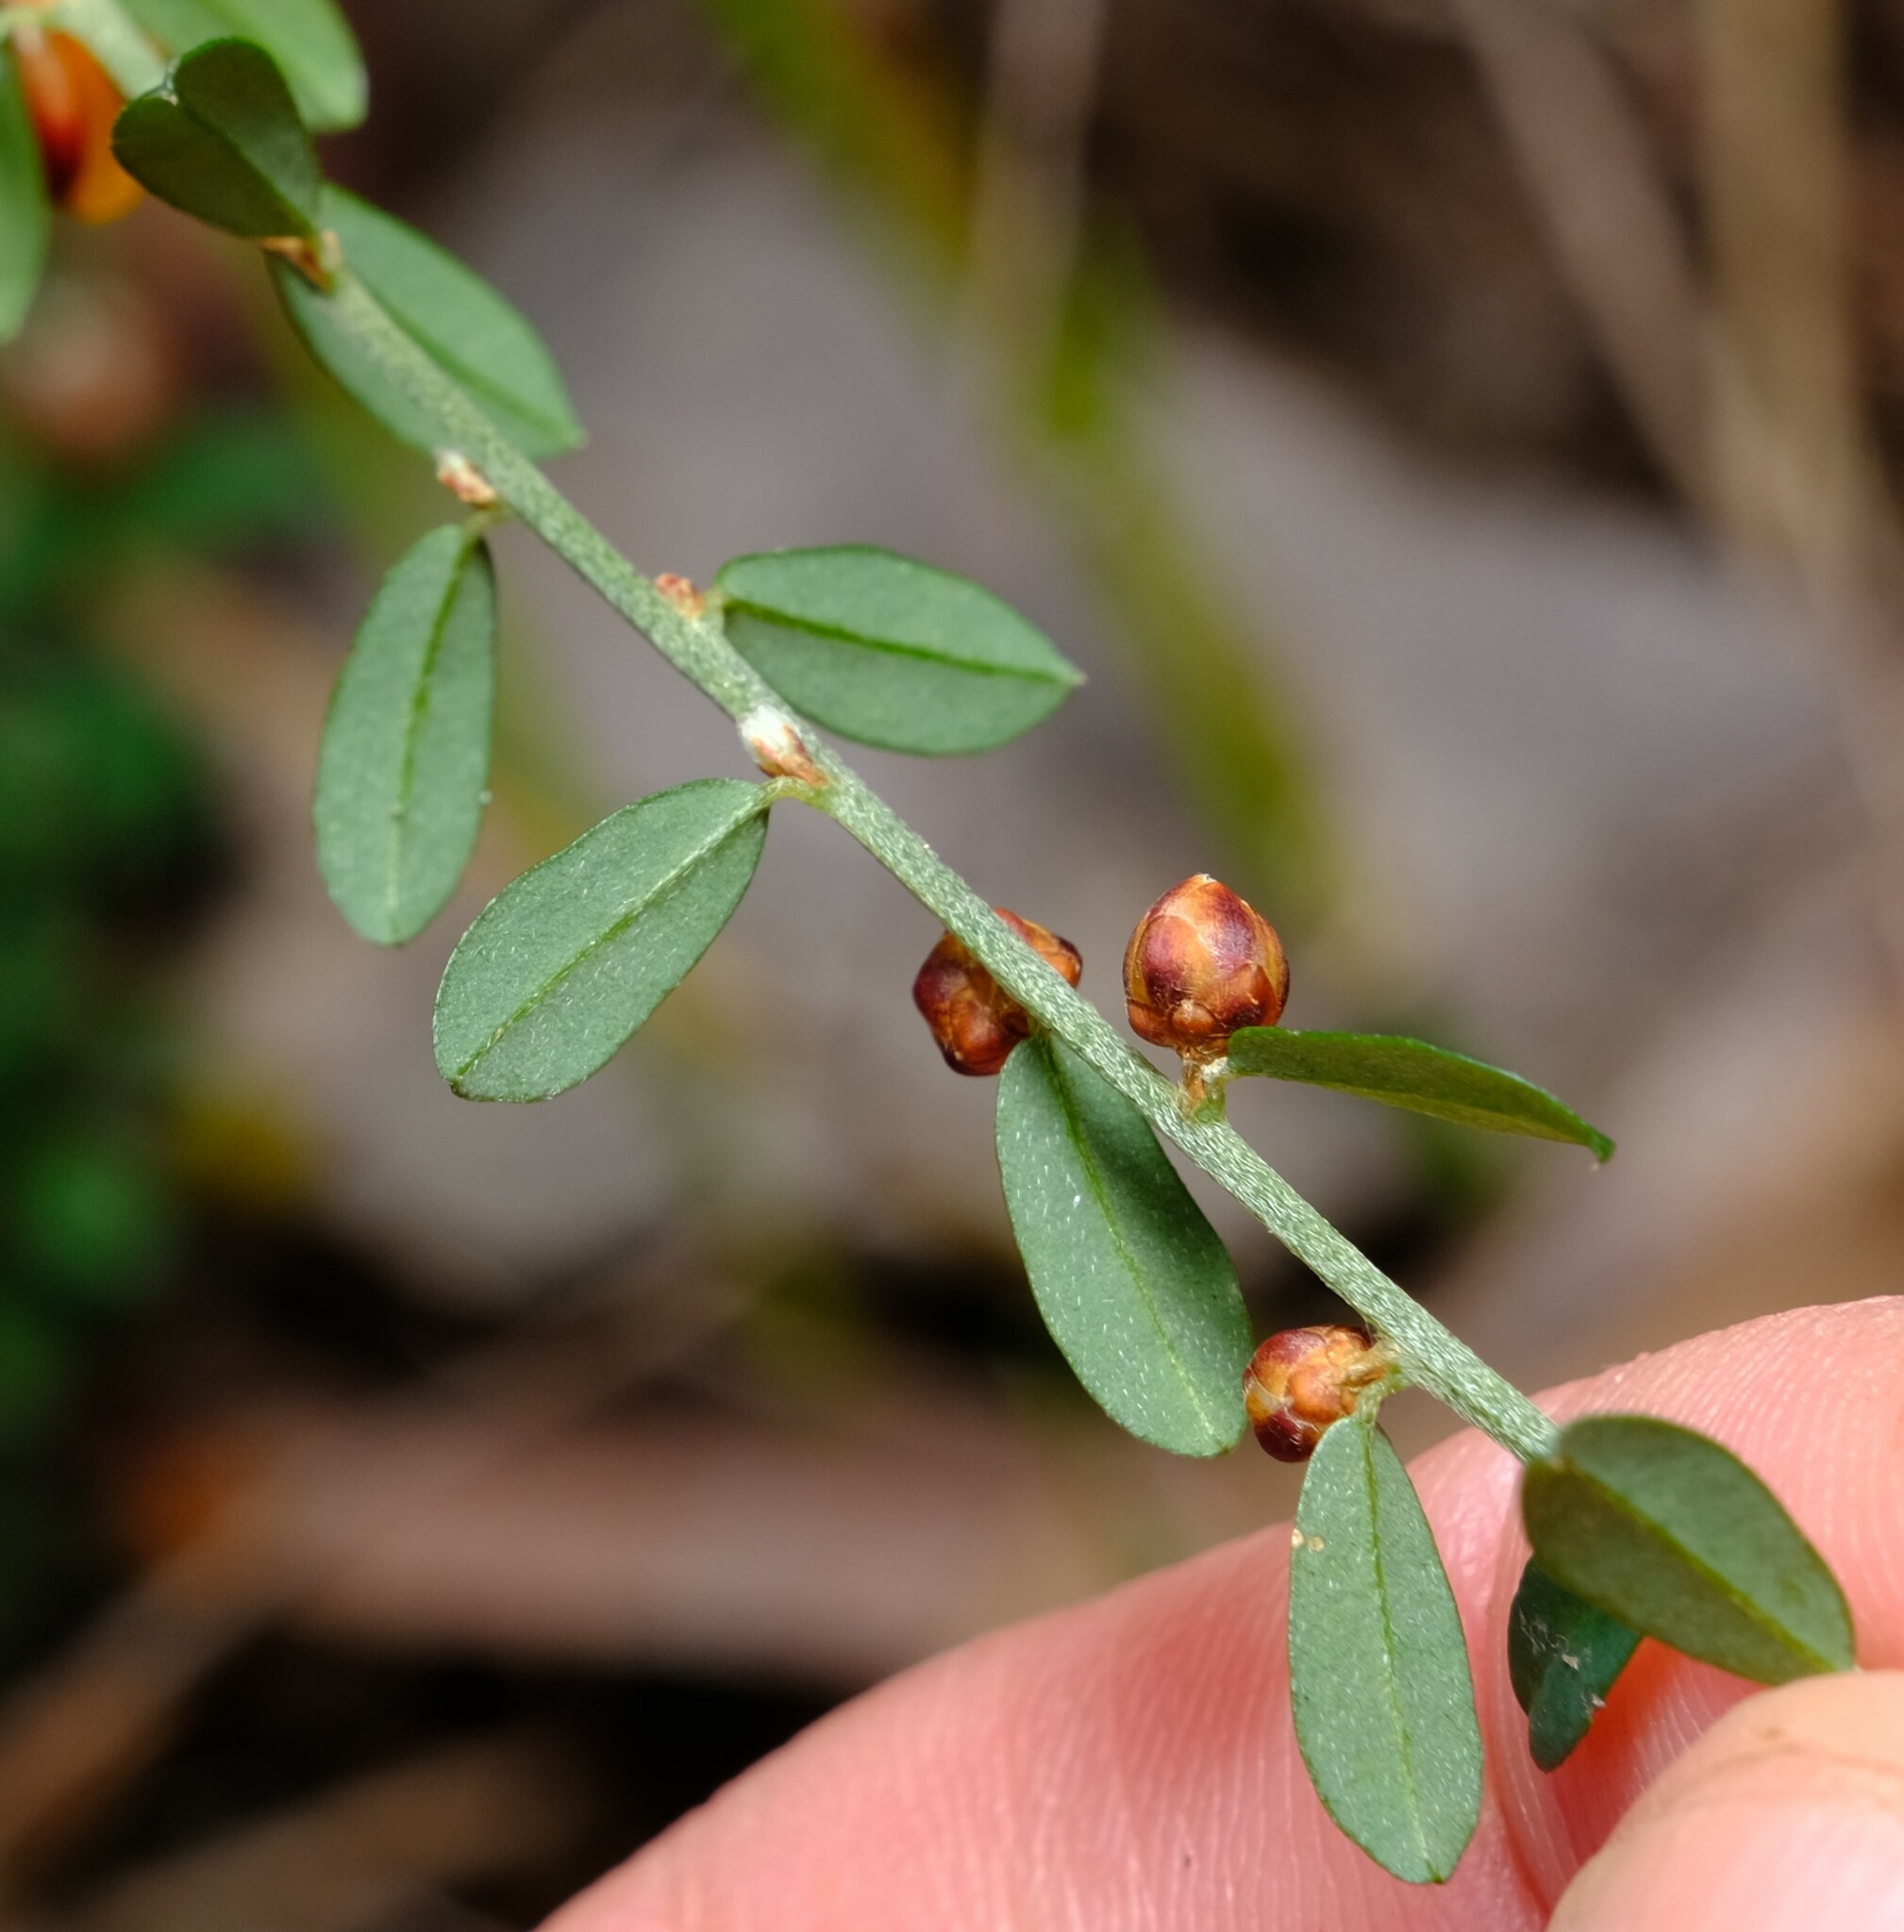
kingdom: Plantae
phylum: Tracheophyta
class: Magnoliopsida
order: Fabales
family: Fabaceae
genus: Pultenaea
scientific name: Pultenaea gunnii
